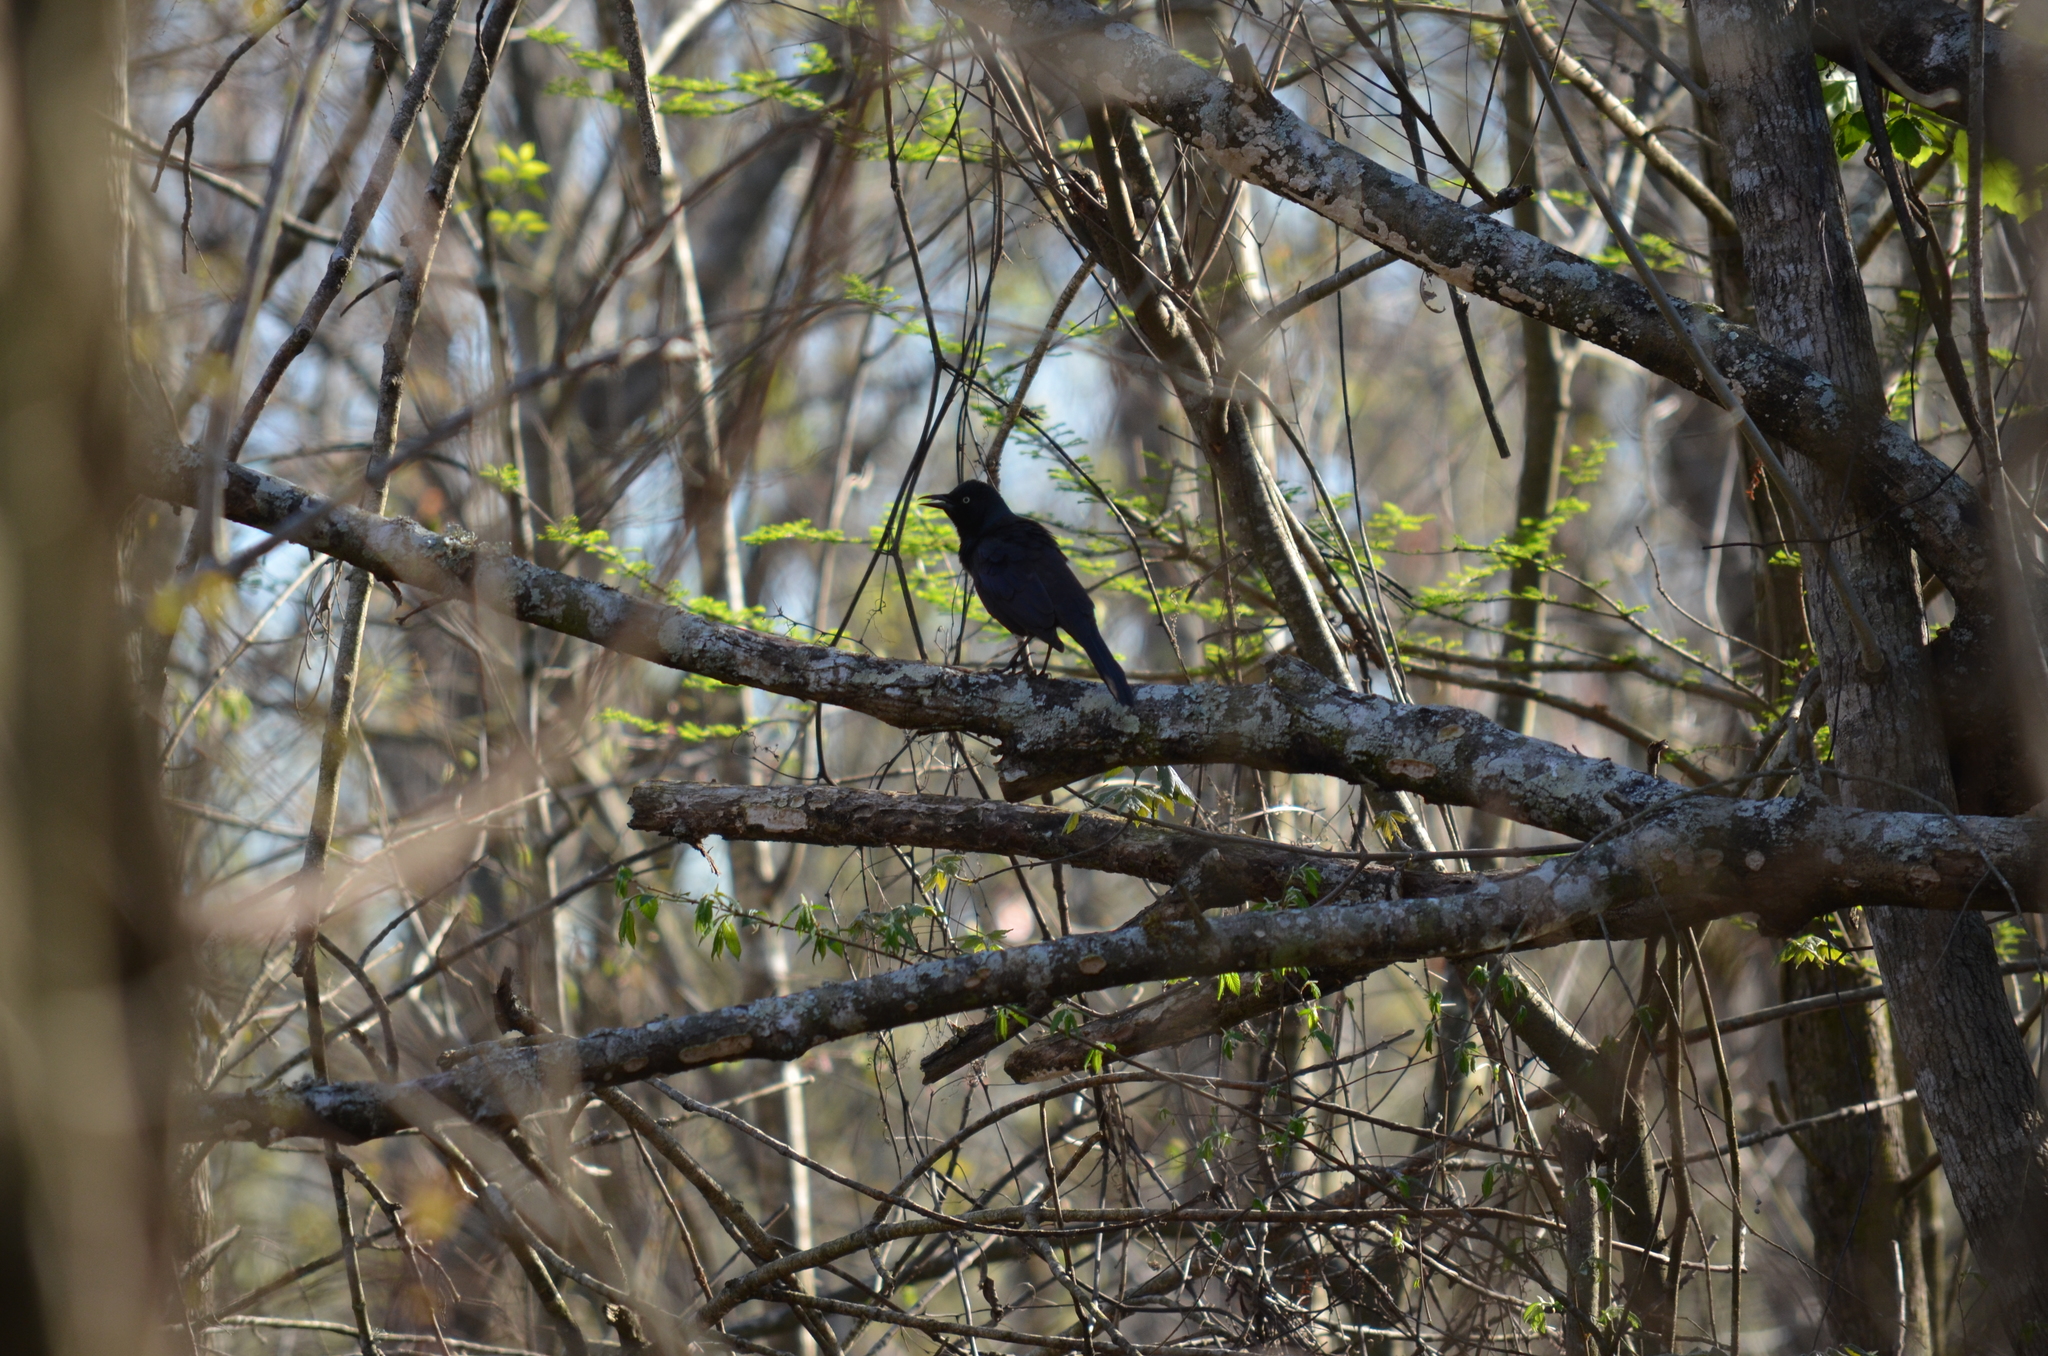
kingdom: Animalia
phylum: Chordata
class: Aves
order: Passeriformes
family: Icteridae
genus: Quiscalus
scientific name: Quiscalus quiscula
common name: Common grackle
